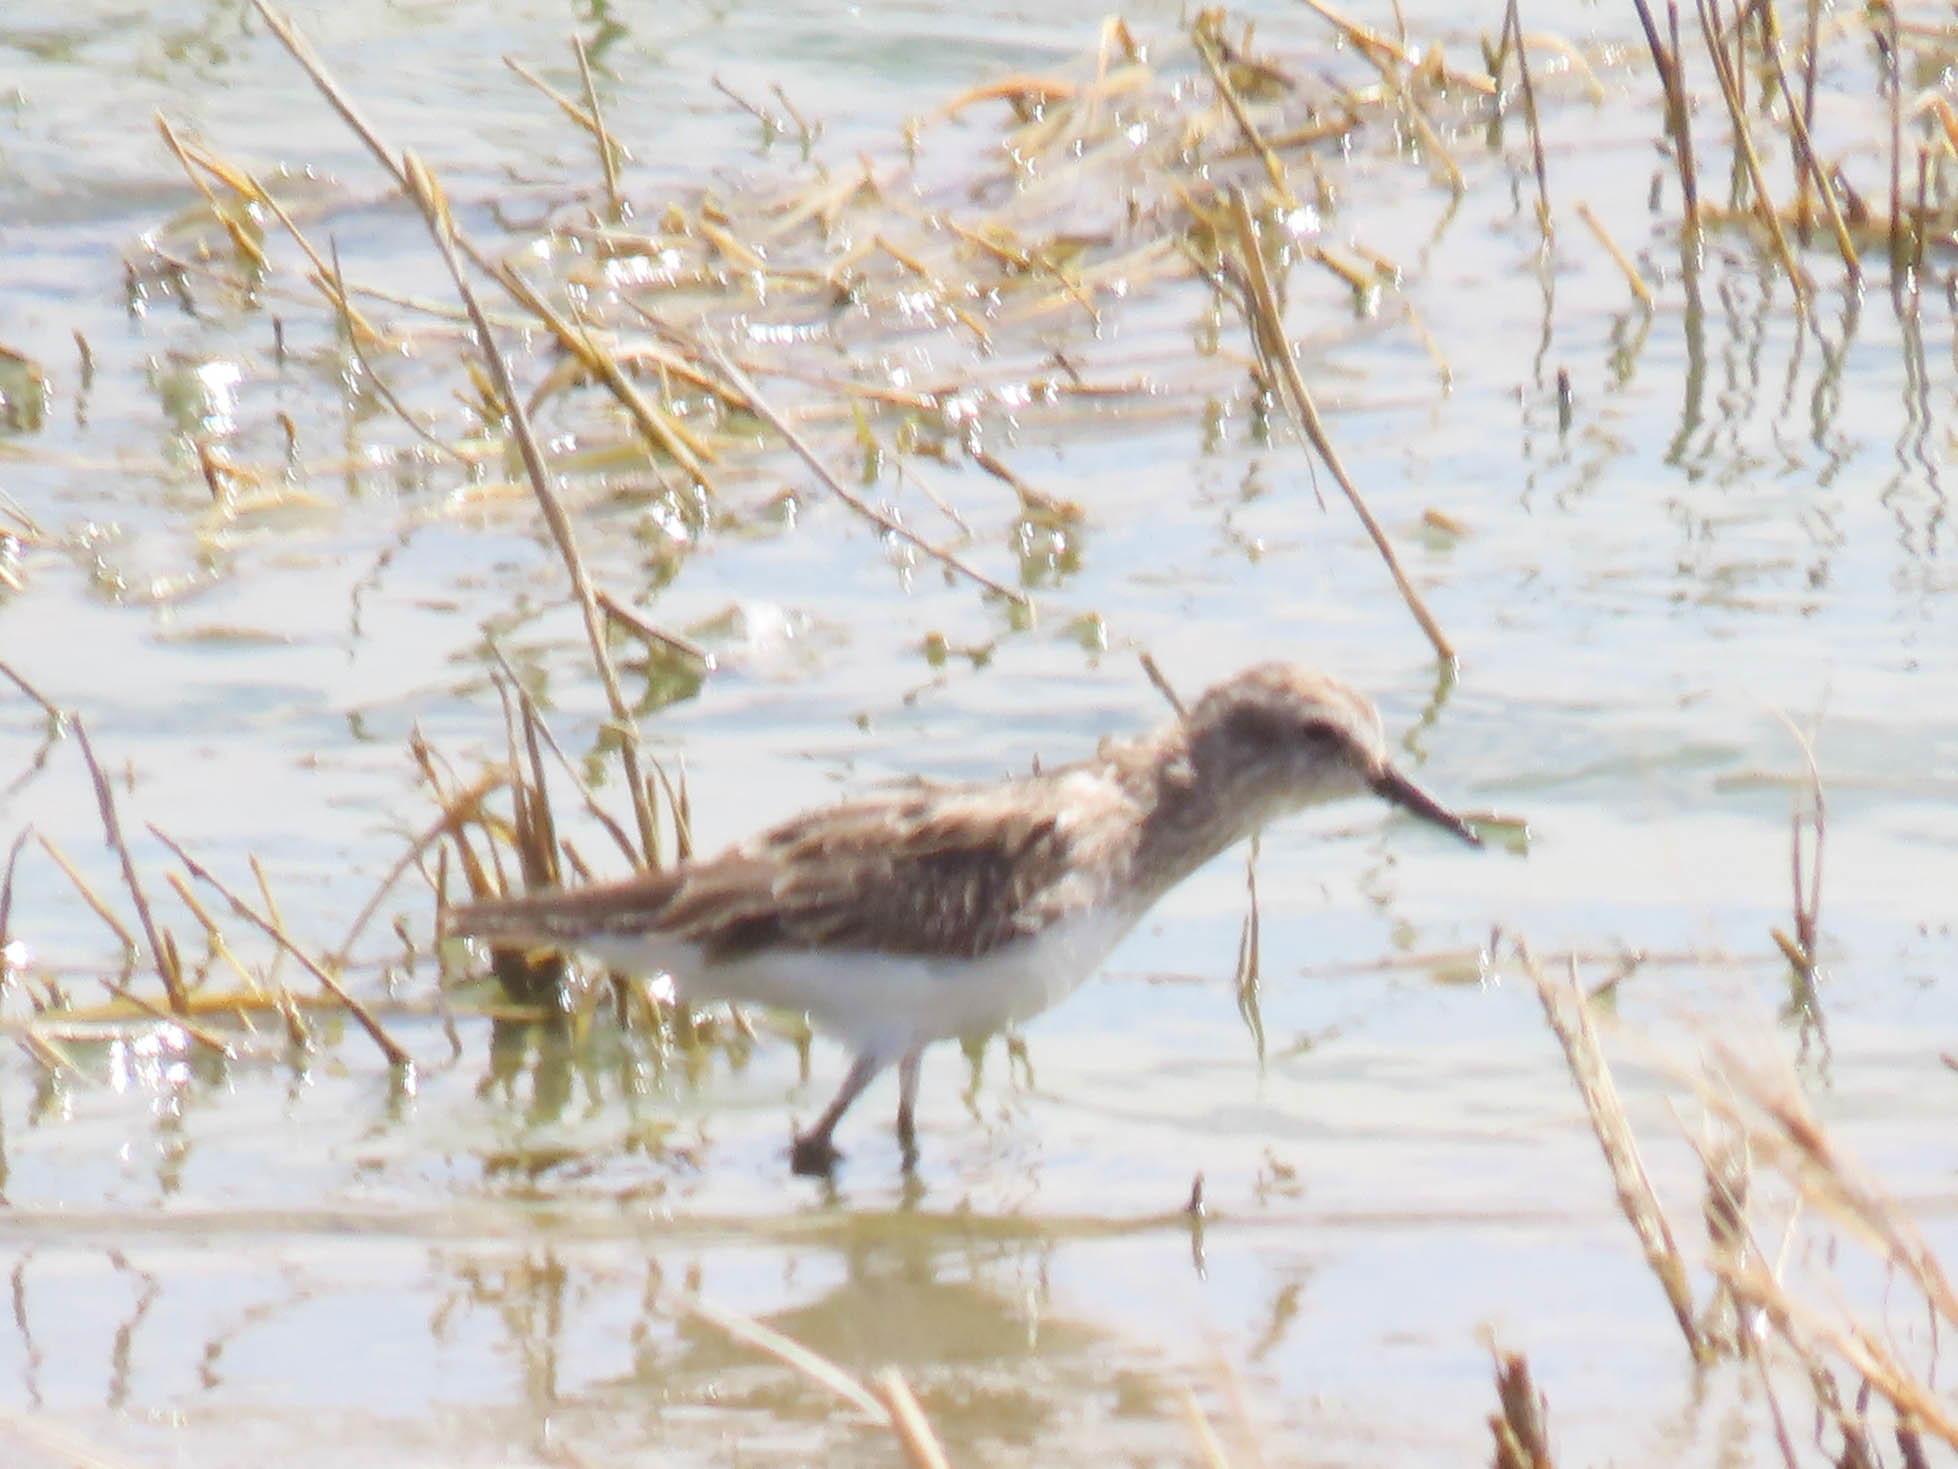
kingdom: Animalia
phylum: Chordata
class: Aves
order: Charadriiformes
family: Scolopacidae
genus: Calidris
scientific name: Calidris minutilla
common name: Least sandpiper
